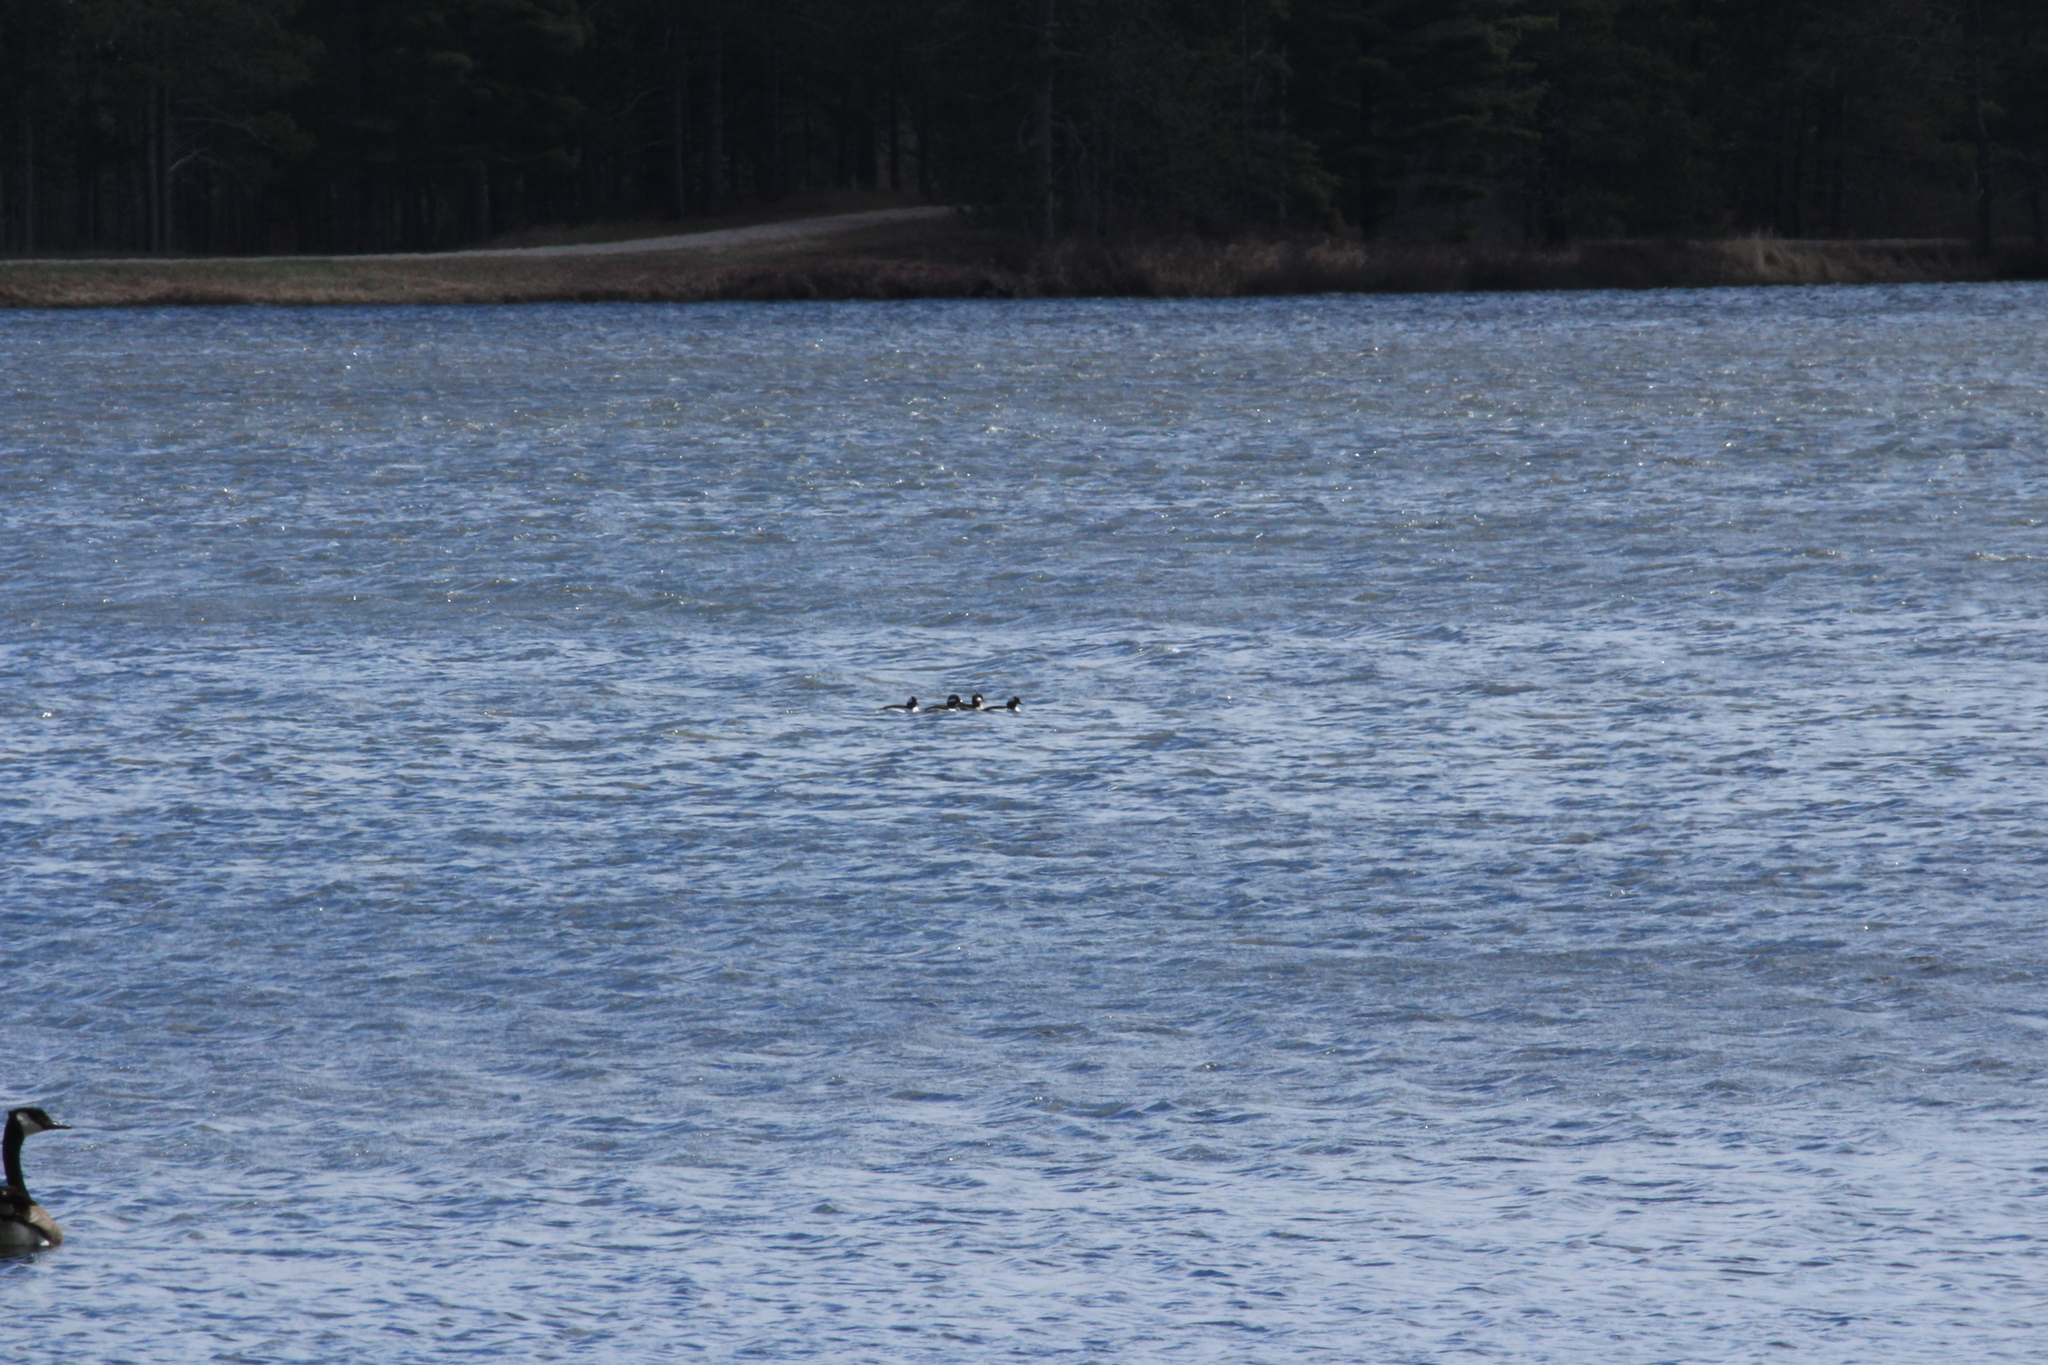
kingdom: Animalia
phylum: Chordata
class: Aves
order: Anseriformes
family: Anatidae
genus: Bucephala
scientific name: Bucephala albeola
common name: Bufflehead
